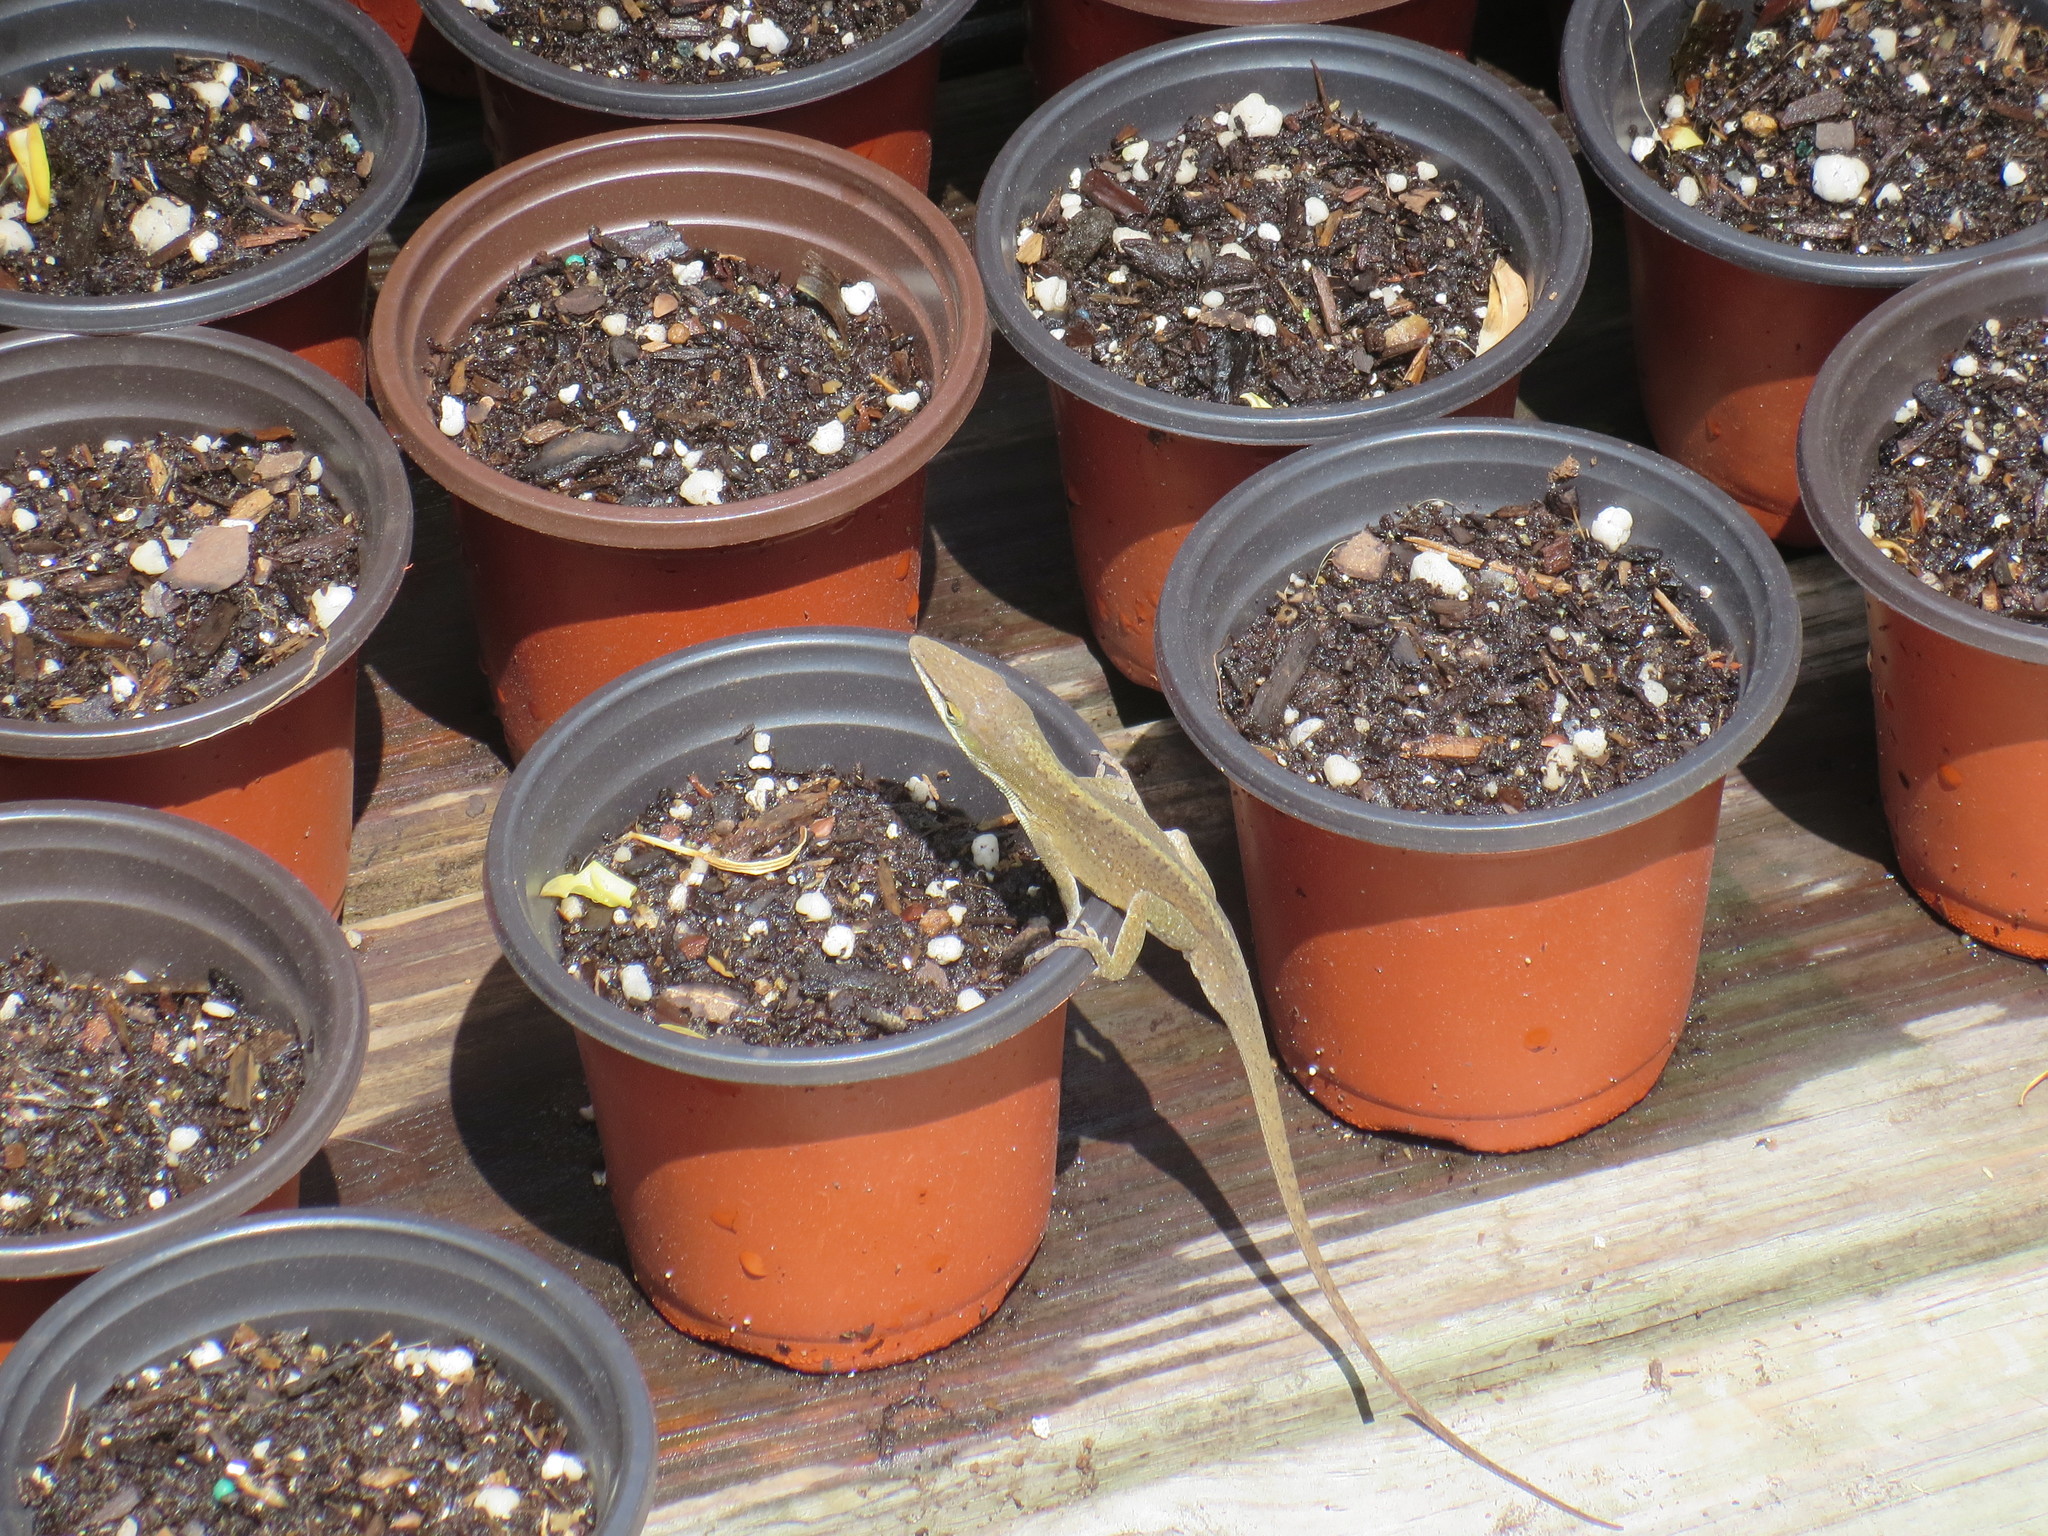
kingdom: Animalia
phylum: Chordata
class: Squamata
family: Dactyloidae
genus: Anolis
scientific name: Anolis carolinensis
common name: Green anole
